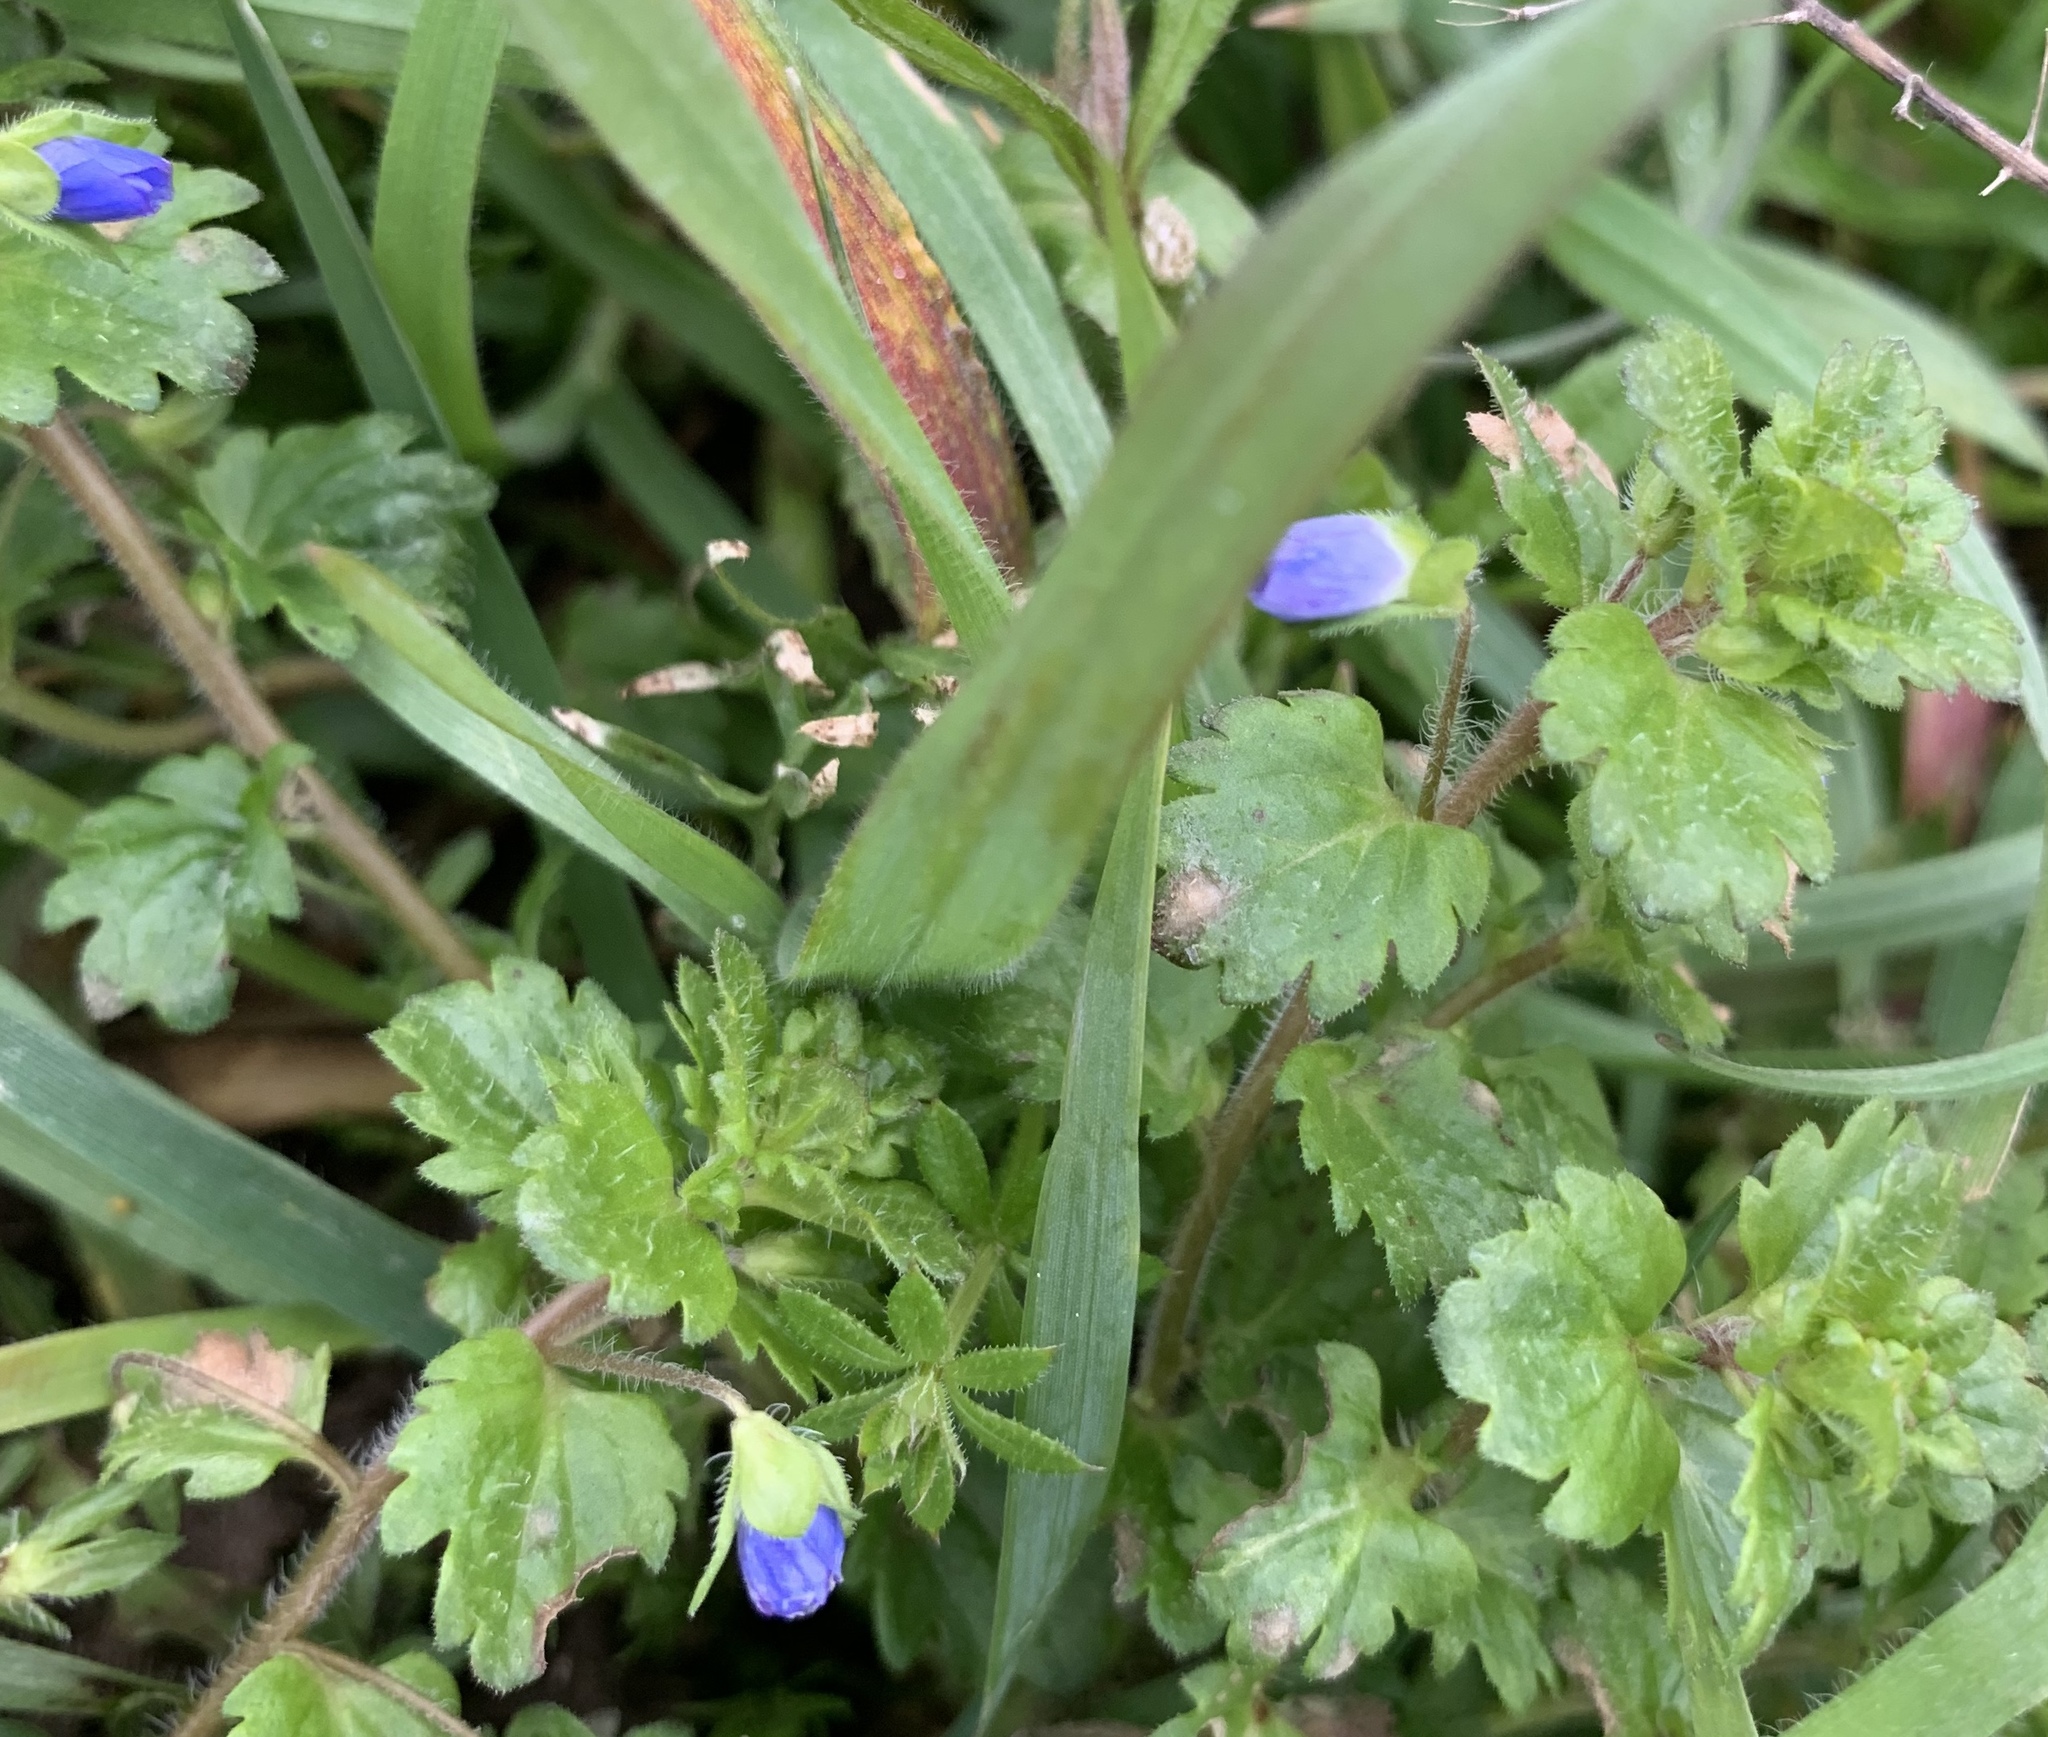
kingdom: Plantae
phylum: Tracheophyta
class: Magnoliopsida
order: Lamiales
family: Plantaginaceae
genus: Veronica
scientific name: Veronica persica
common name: Common field-speedwell
